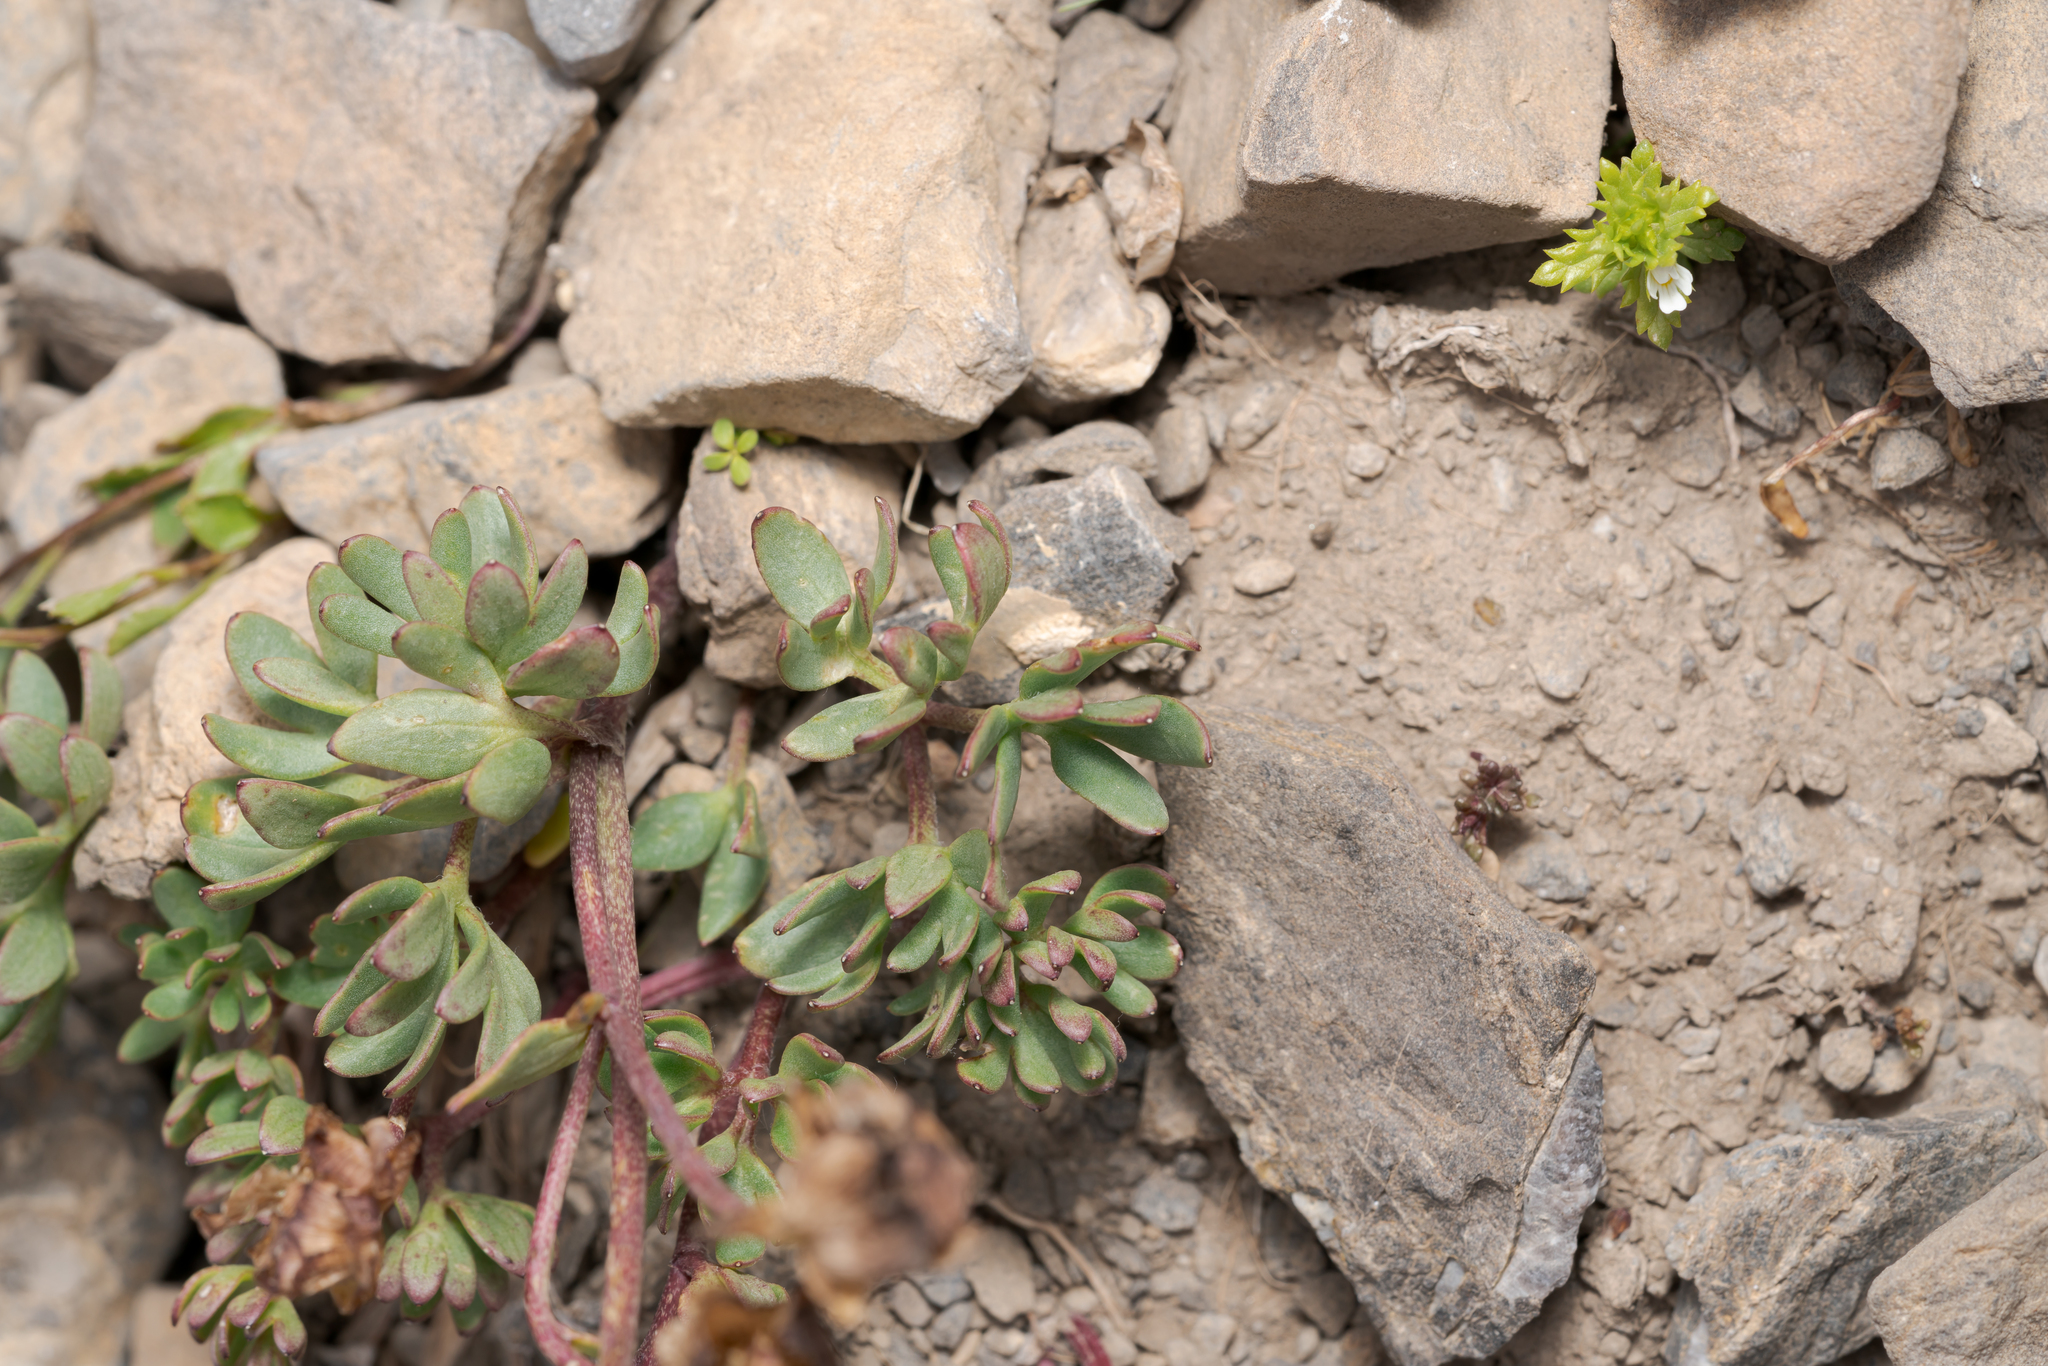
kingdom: Plantae
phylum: Tracheophyta
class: Magnoliopsida
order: Ranunculales
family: Ranunculaceae
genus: Ranunculus
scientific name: Ranunculus glacialis
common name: Glacier buttercup
